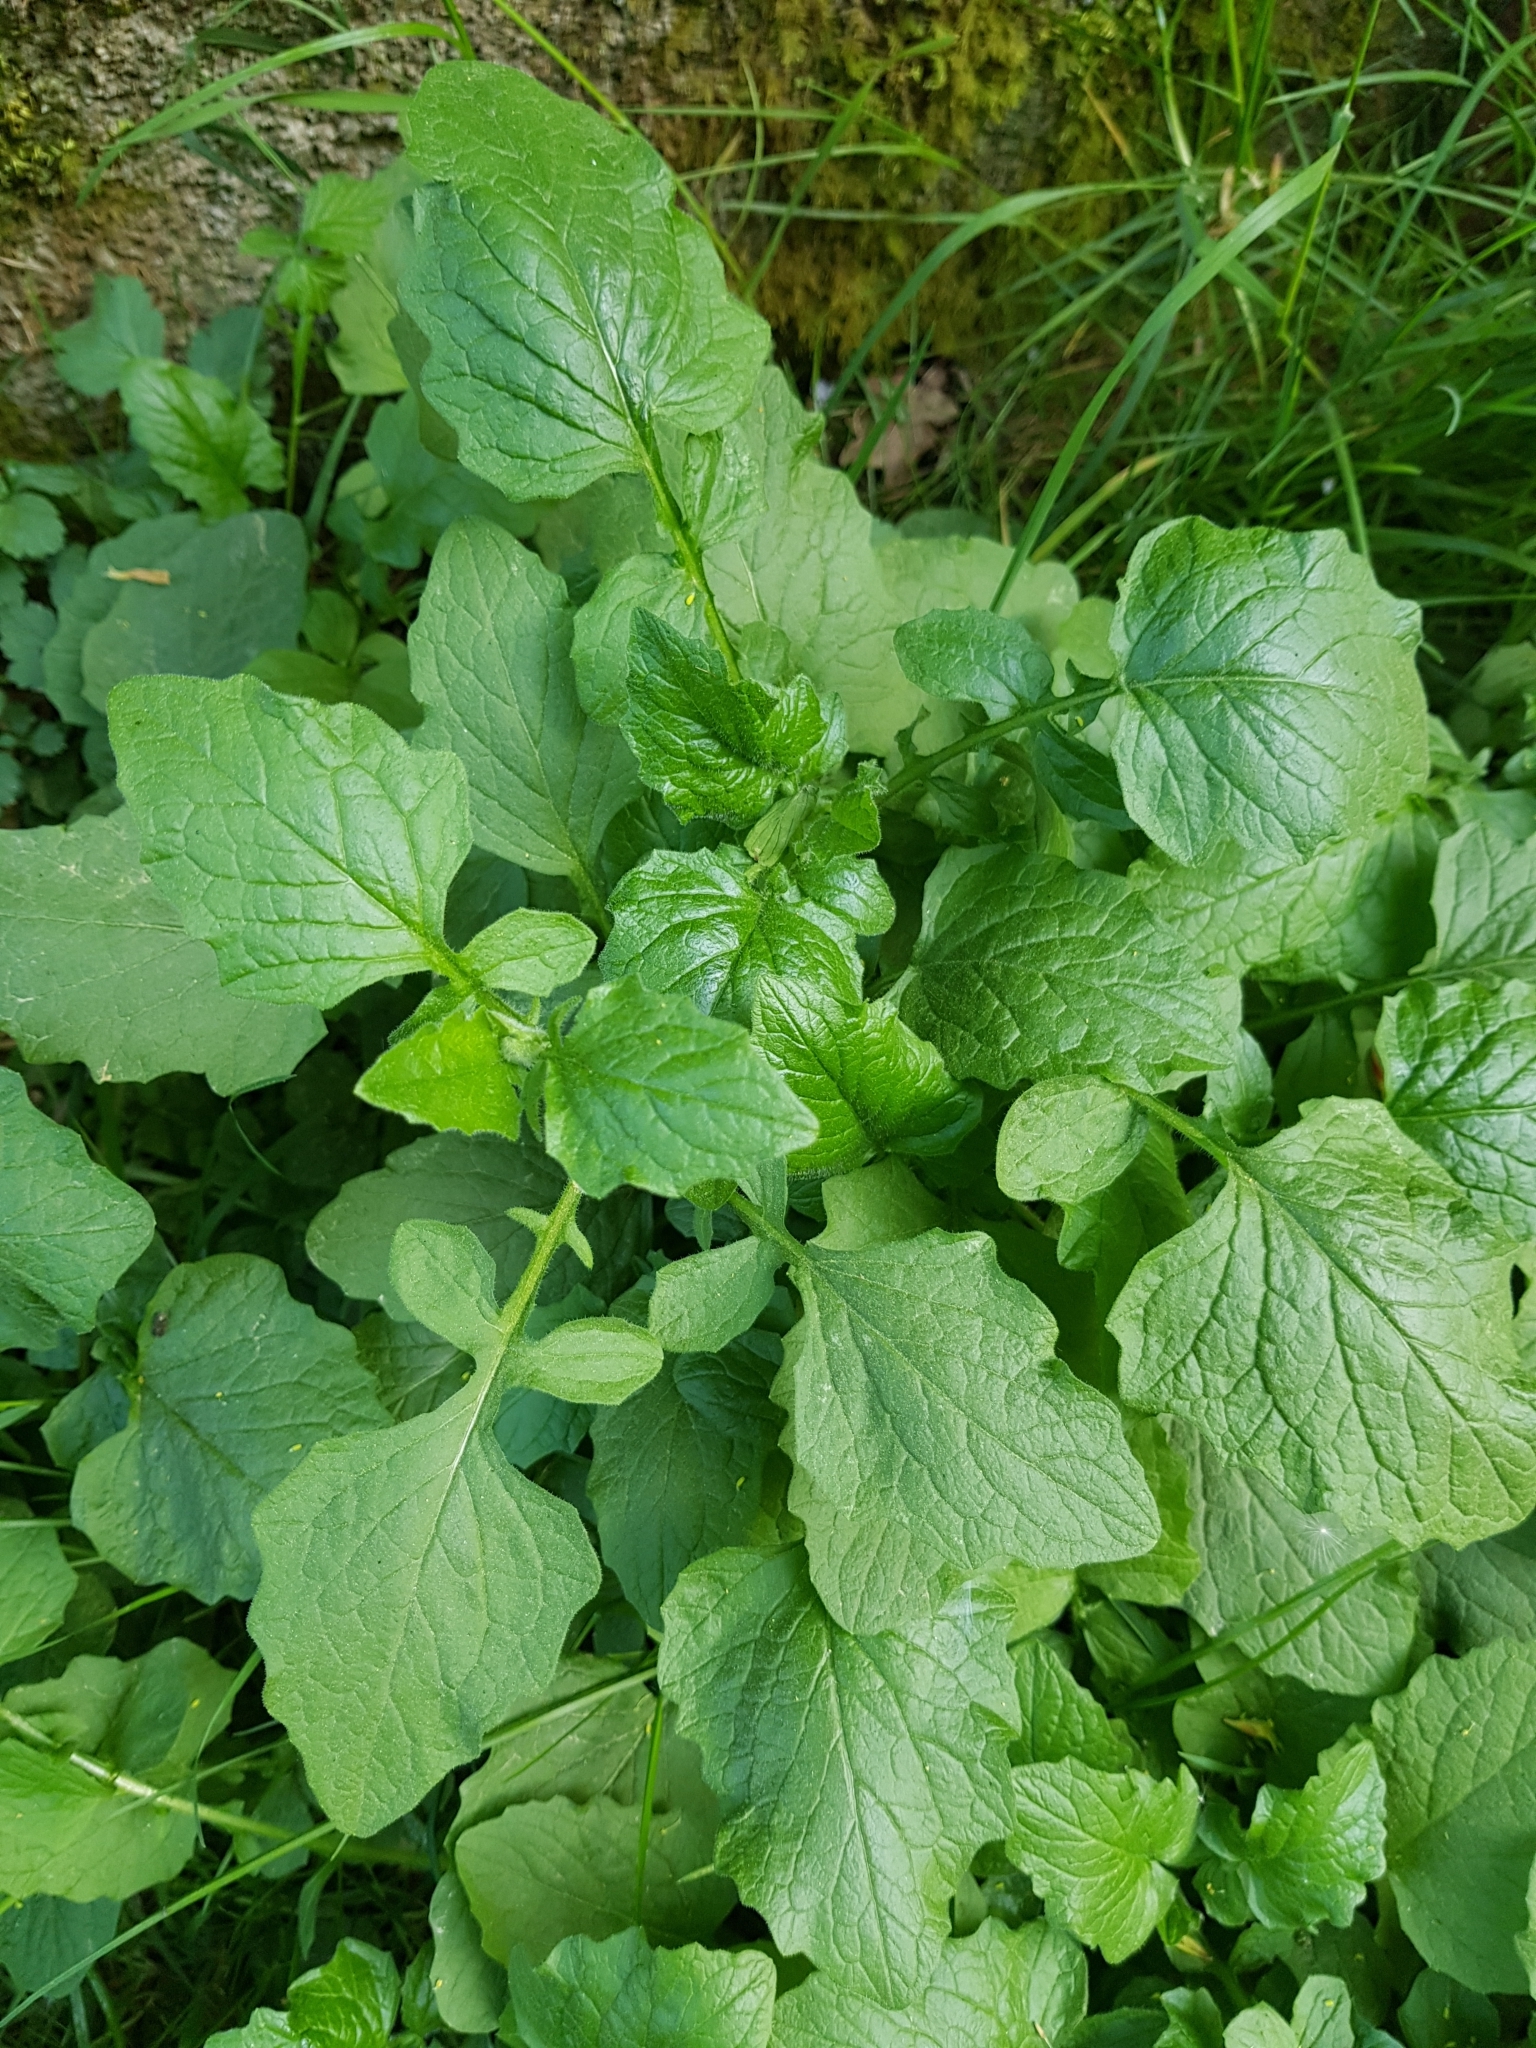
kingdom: Plantae
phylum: Tracheophyta
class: Magnoliopsida
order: Asterales
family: Asteraceae
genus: Lapsana
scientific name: Lapsana communis
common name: Nipplewort
